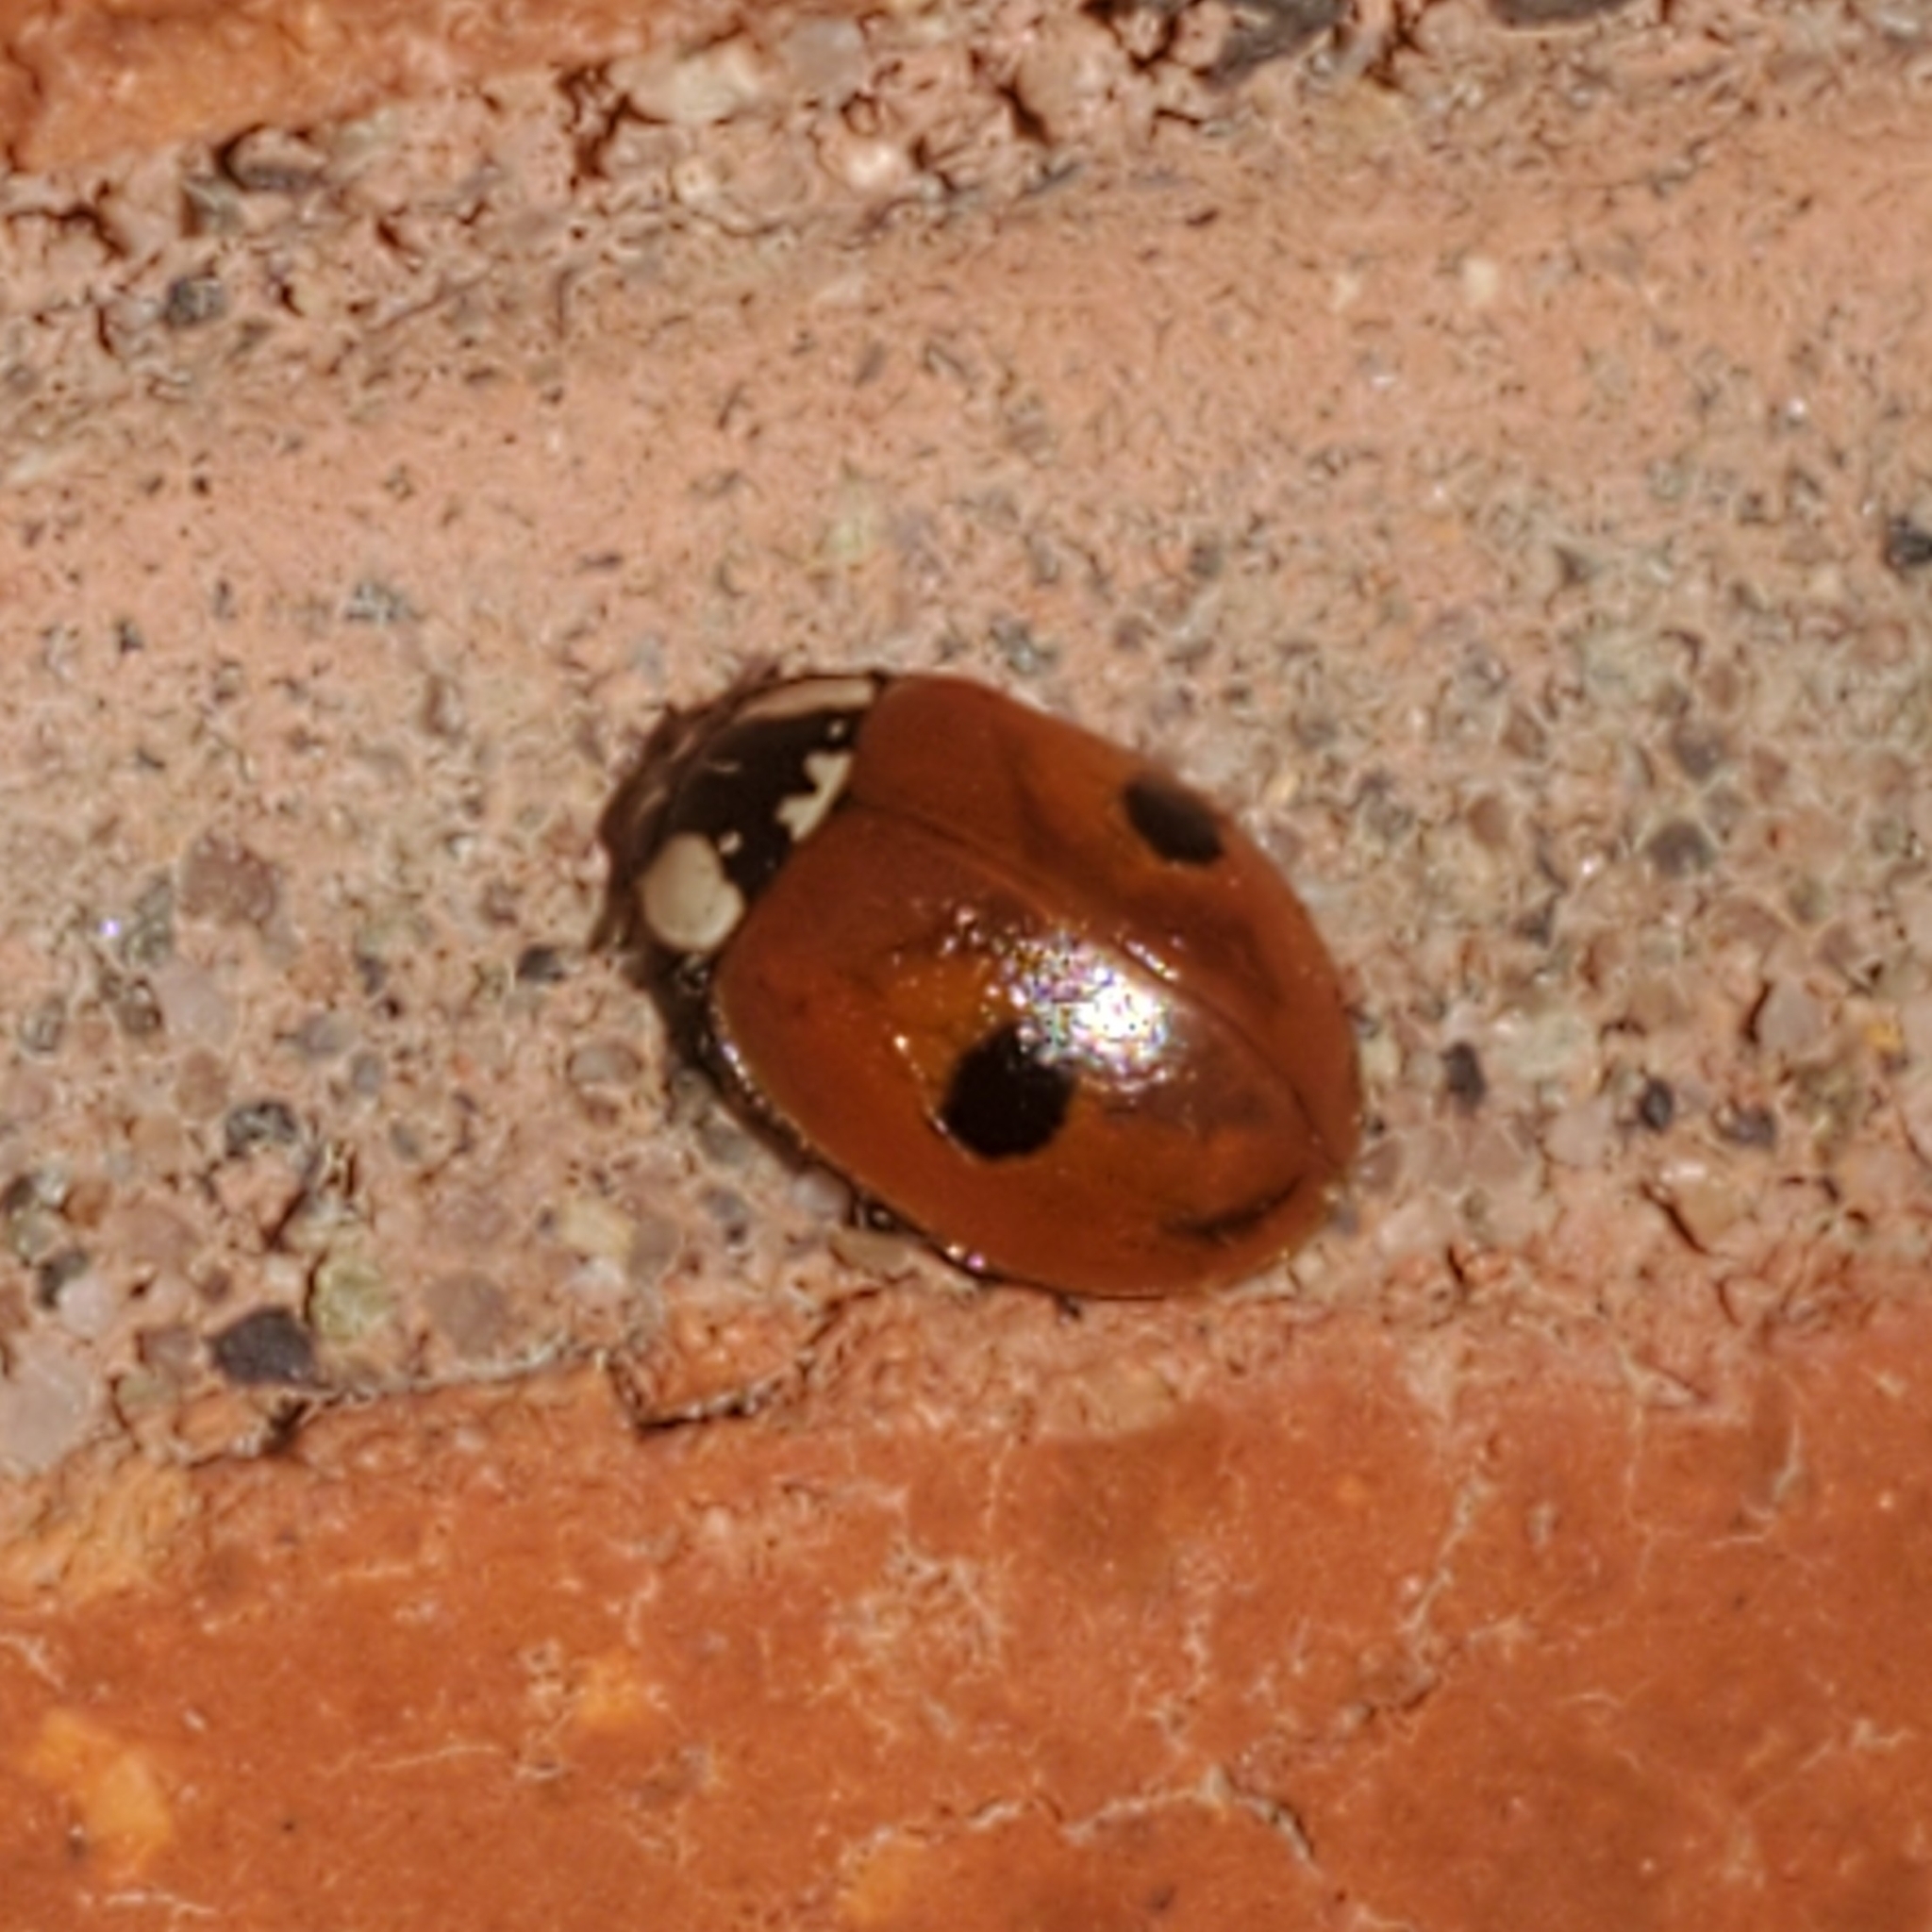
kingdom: Animalia
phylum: Arthropoda
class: Insecta
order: Coleoptera
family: Coccinellidae
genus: Adalia
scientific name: Adalia bipunctata
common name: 2-spot ladybird
